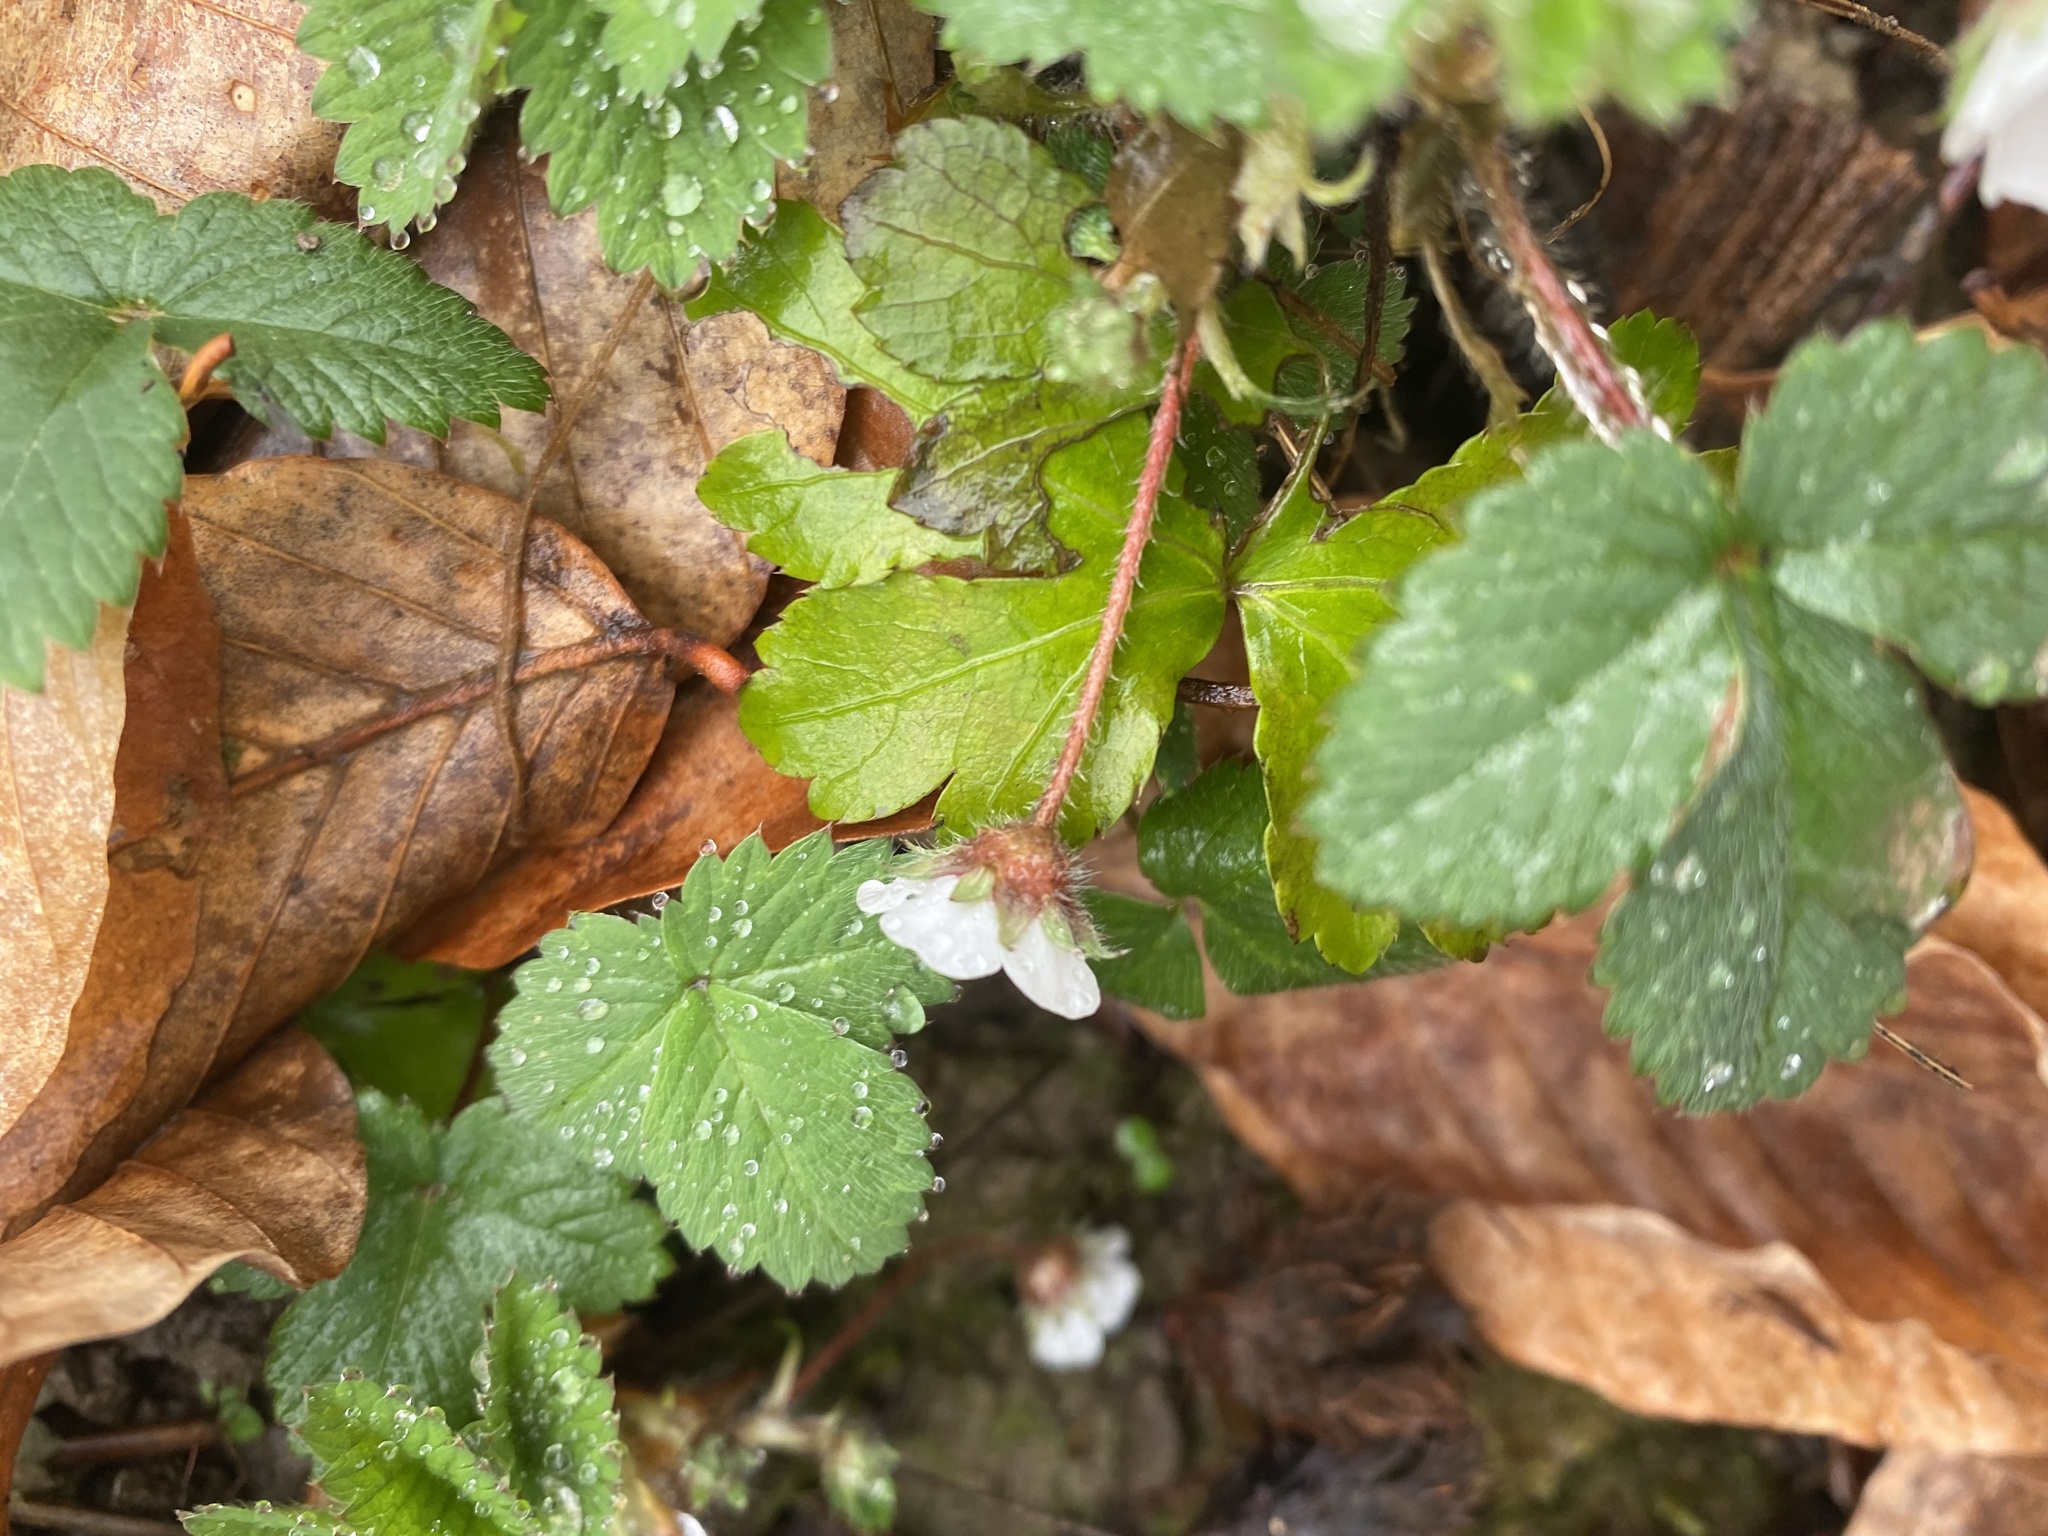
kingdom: Plantae
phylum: Tracheophyta
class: Magnoliopsida
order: Rosales
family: Rosaceae
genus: Potentilla
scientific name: Potentilla micrantha
